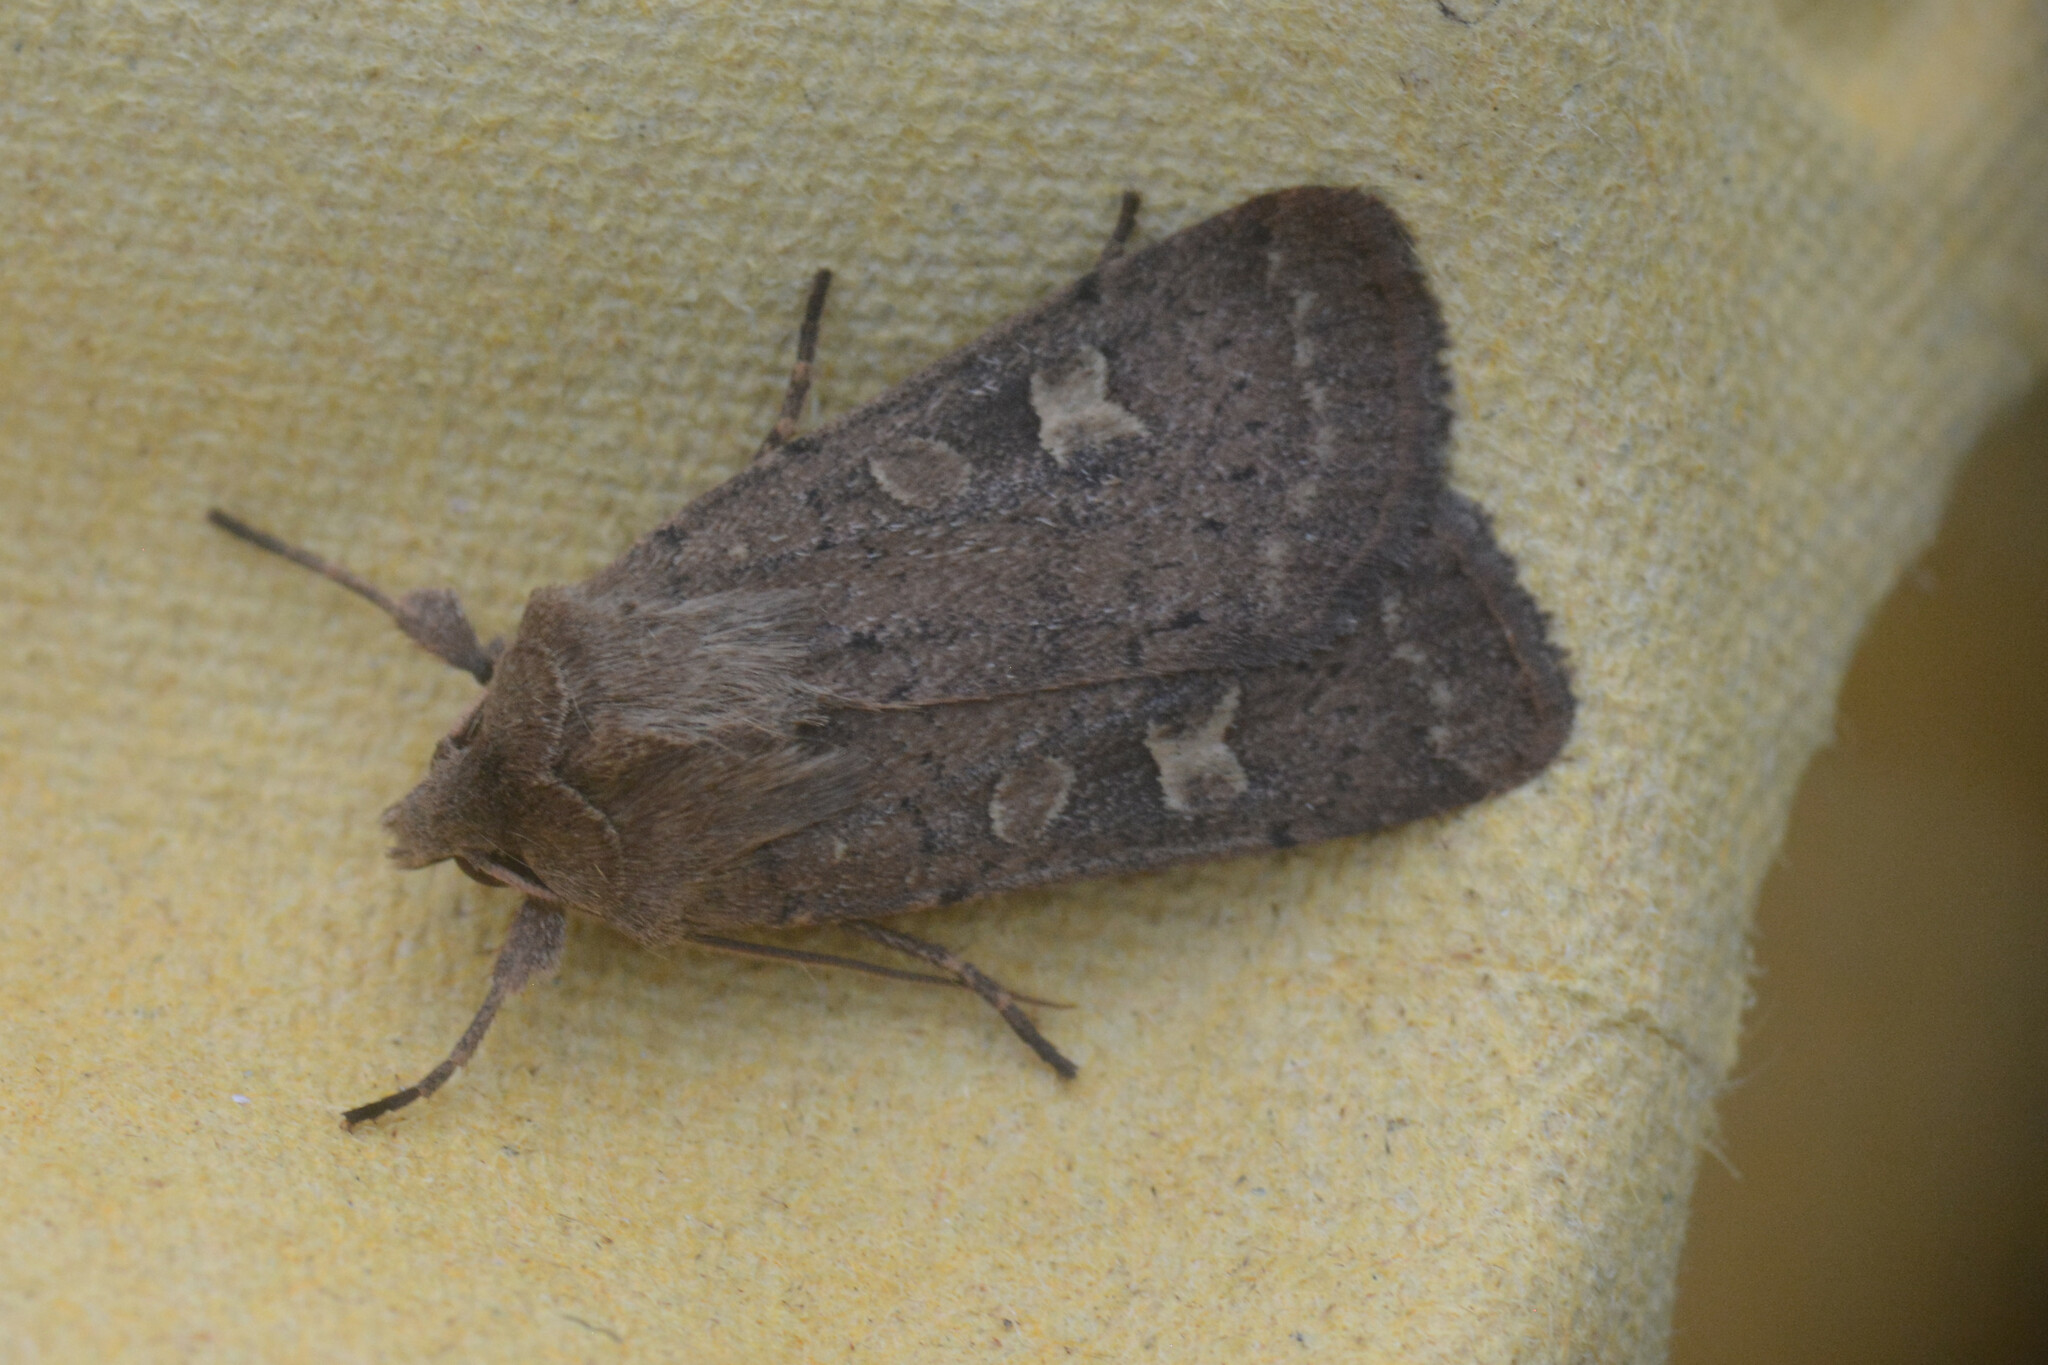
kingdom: Animalia
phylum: Arthropoda
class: Insecta
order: Lepidoptera
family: Noctuidae
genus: Xestia
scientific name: Xestia xanthographa
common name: Square-spot rustic
